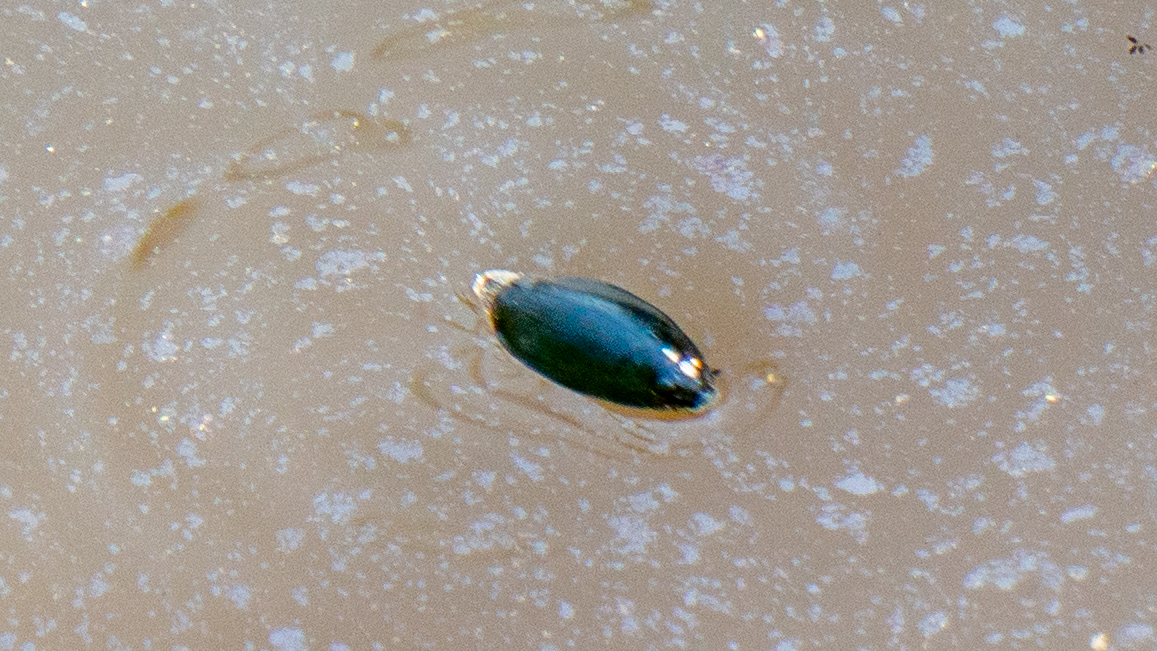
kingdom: Animalia
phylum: Arthropoda
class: Insecta
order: Coleoptera
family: Gyrinidae
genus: Dineutus
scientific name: Dineutus
